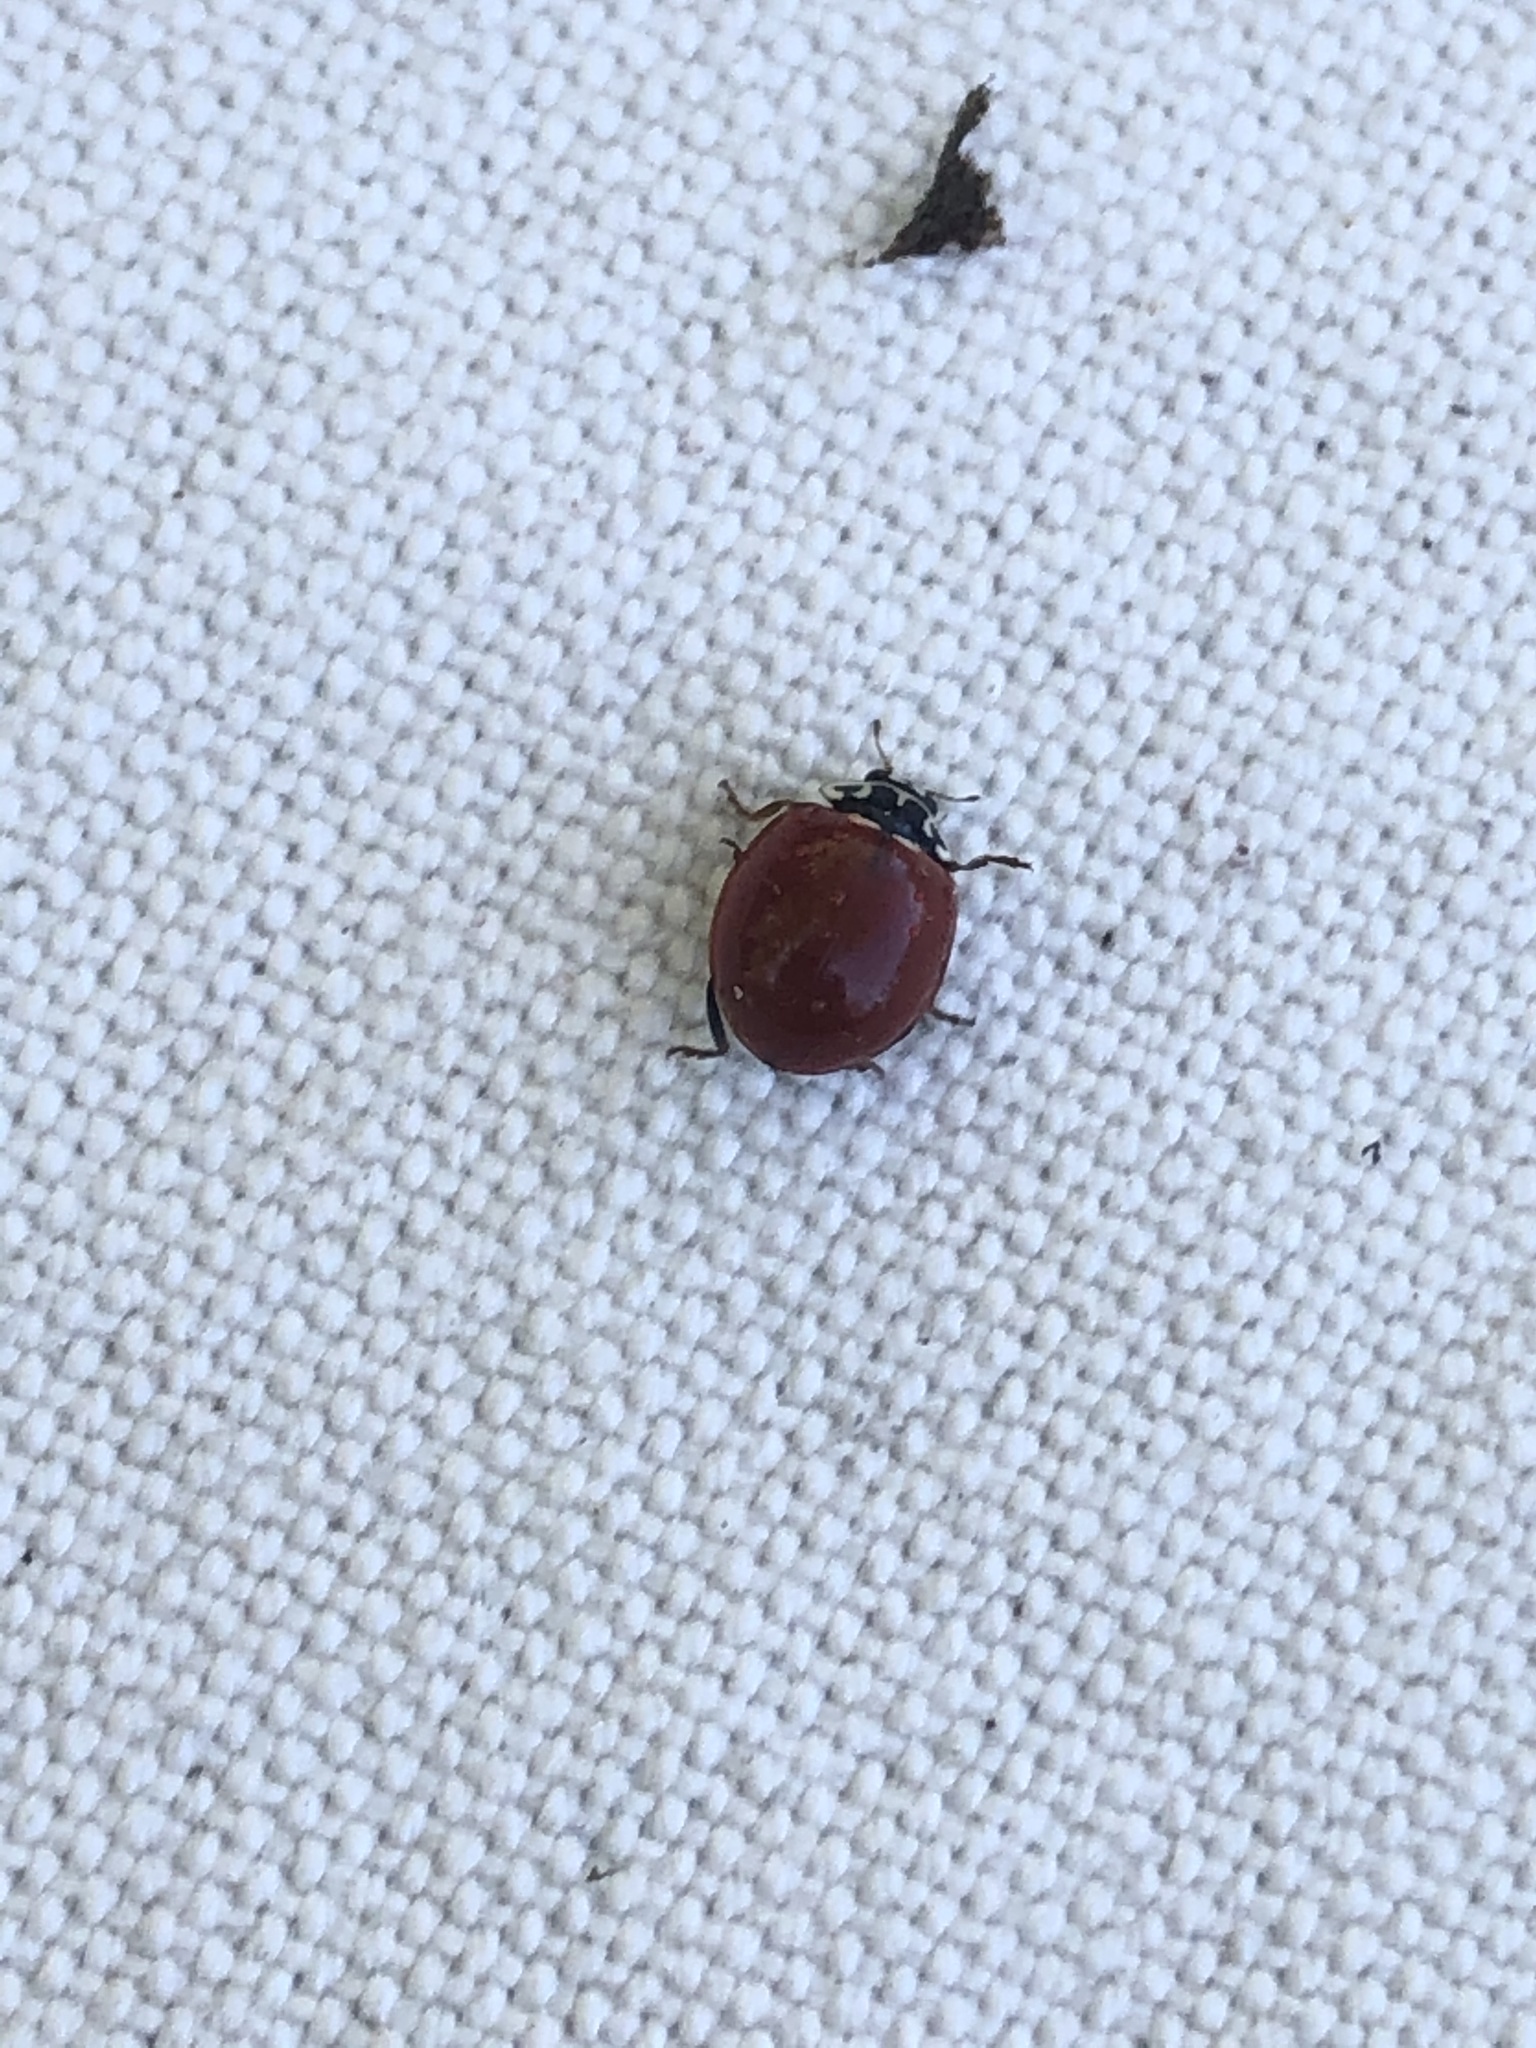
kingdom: Animalia
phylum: Arthropoda
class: Insecta
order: Coleoptera
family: Coccinellidae
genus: Cycloneda
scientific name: Cycloneda polita
